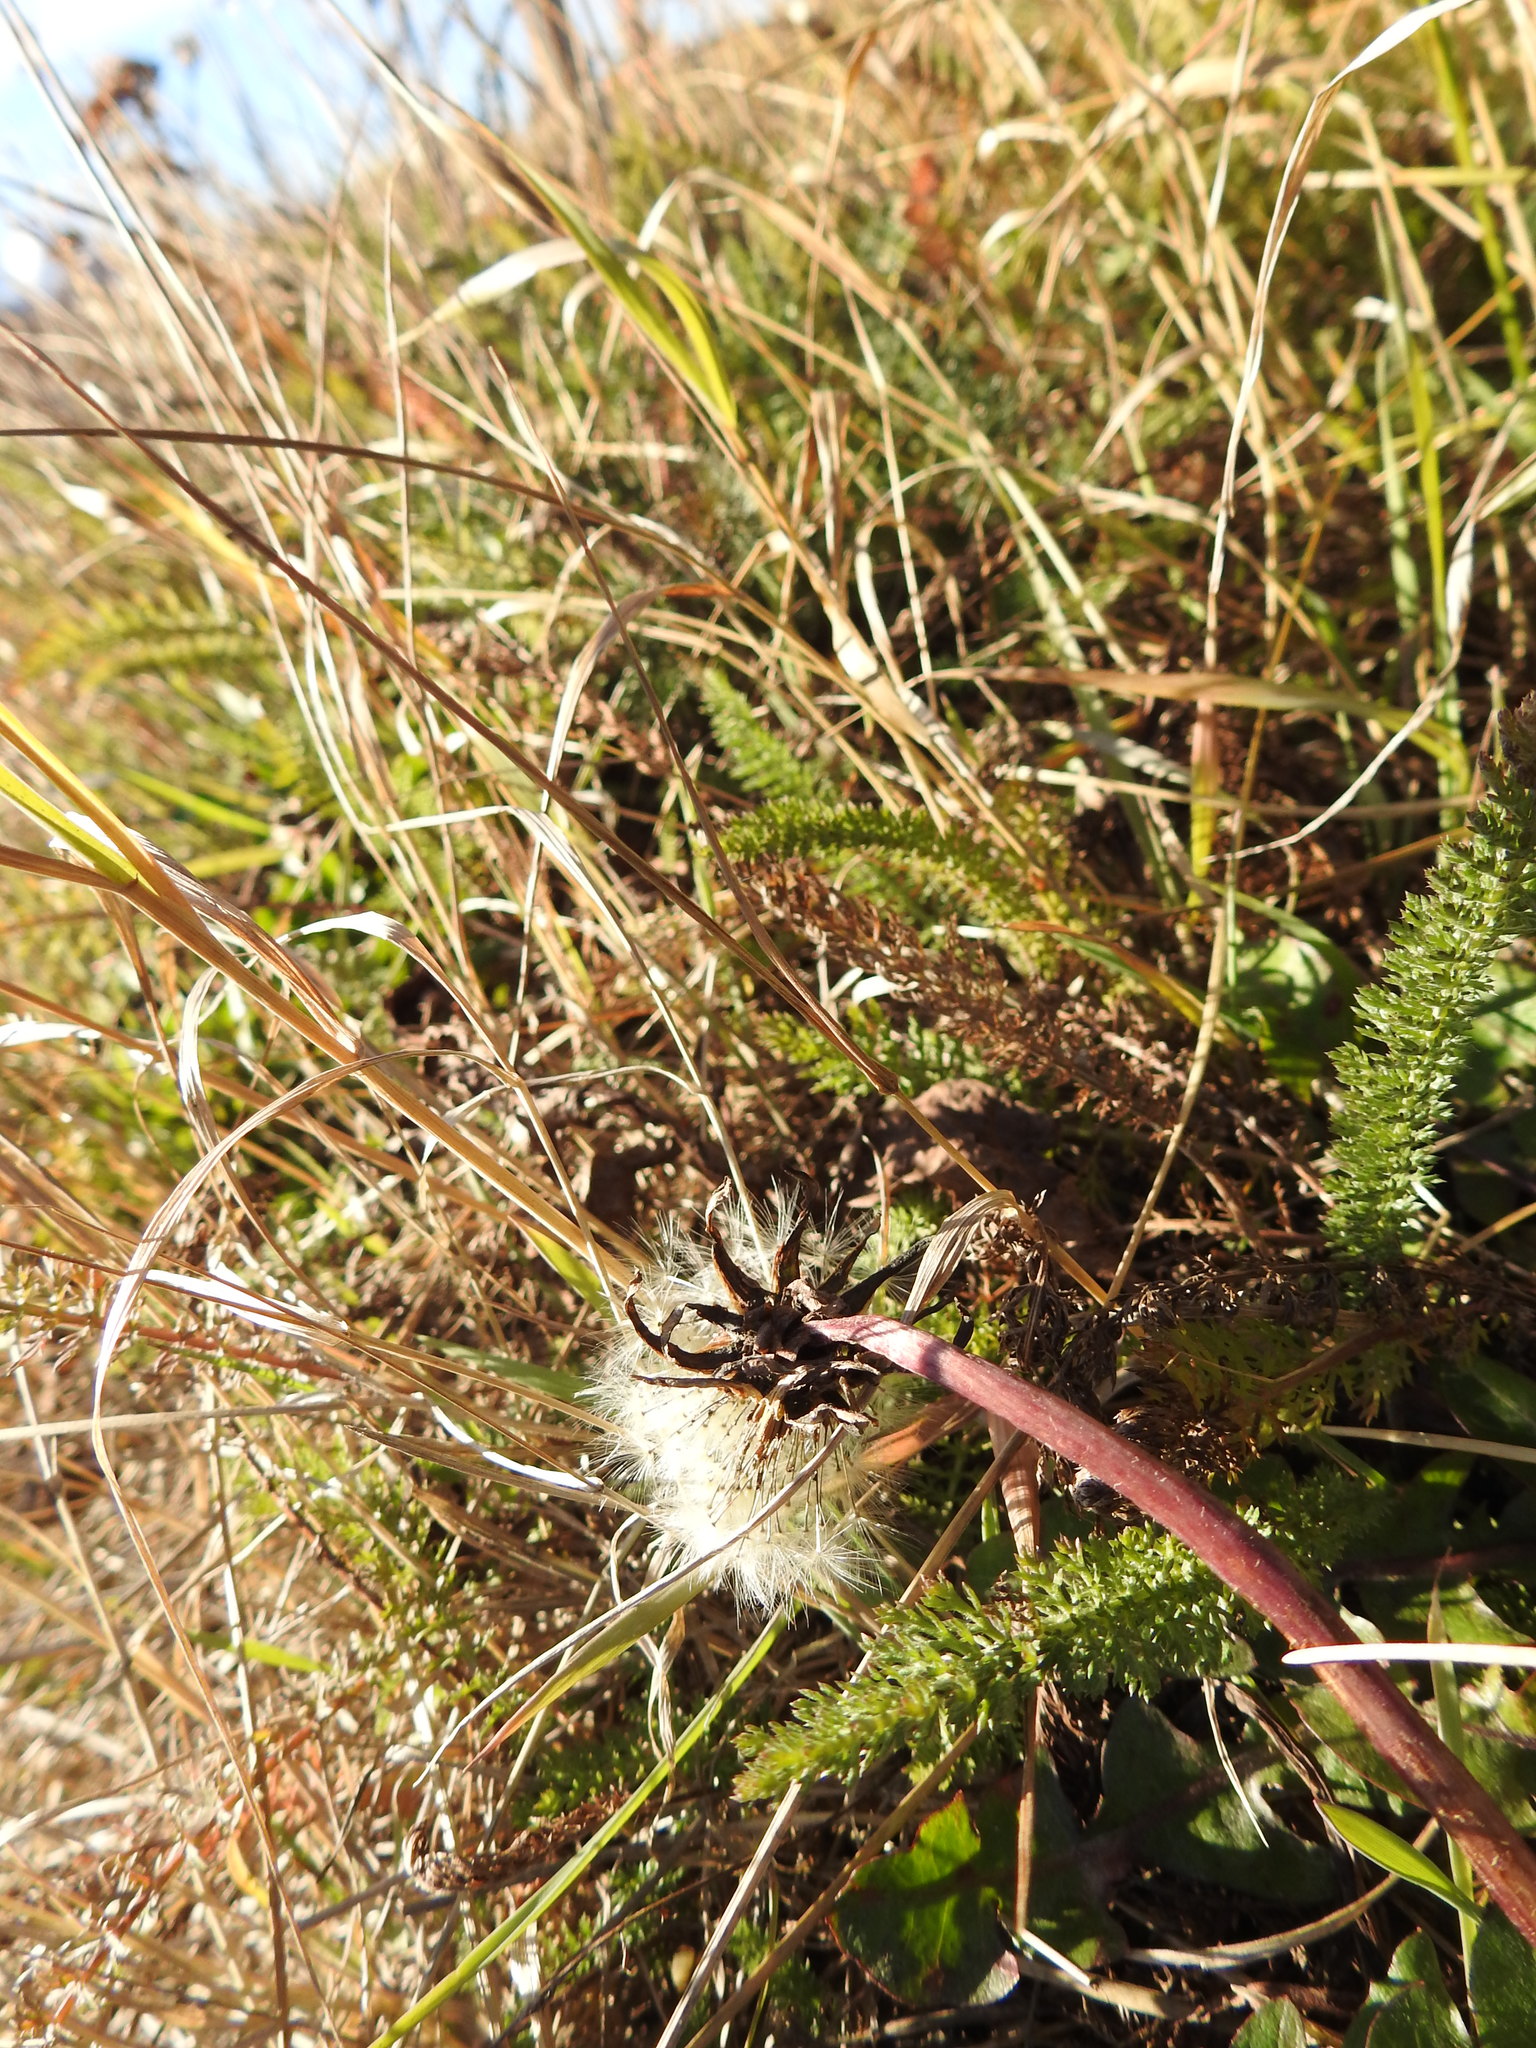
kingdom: Plantae
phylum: Tracheophyta
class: Magnoliopsida
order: Asterales
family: Asteraceae
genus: Taraxacum
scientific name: Taraxacum officinale
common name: Common dandelion
